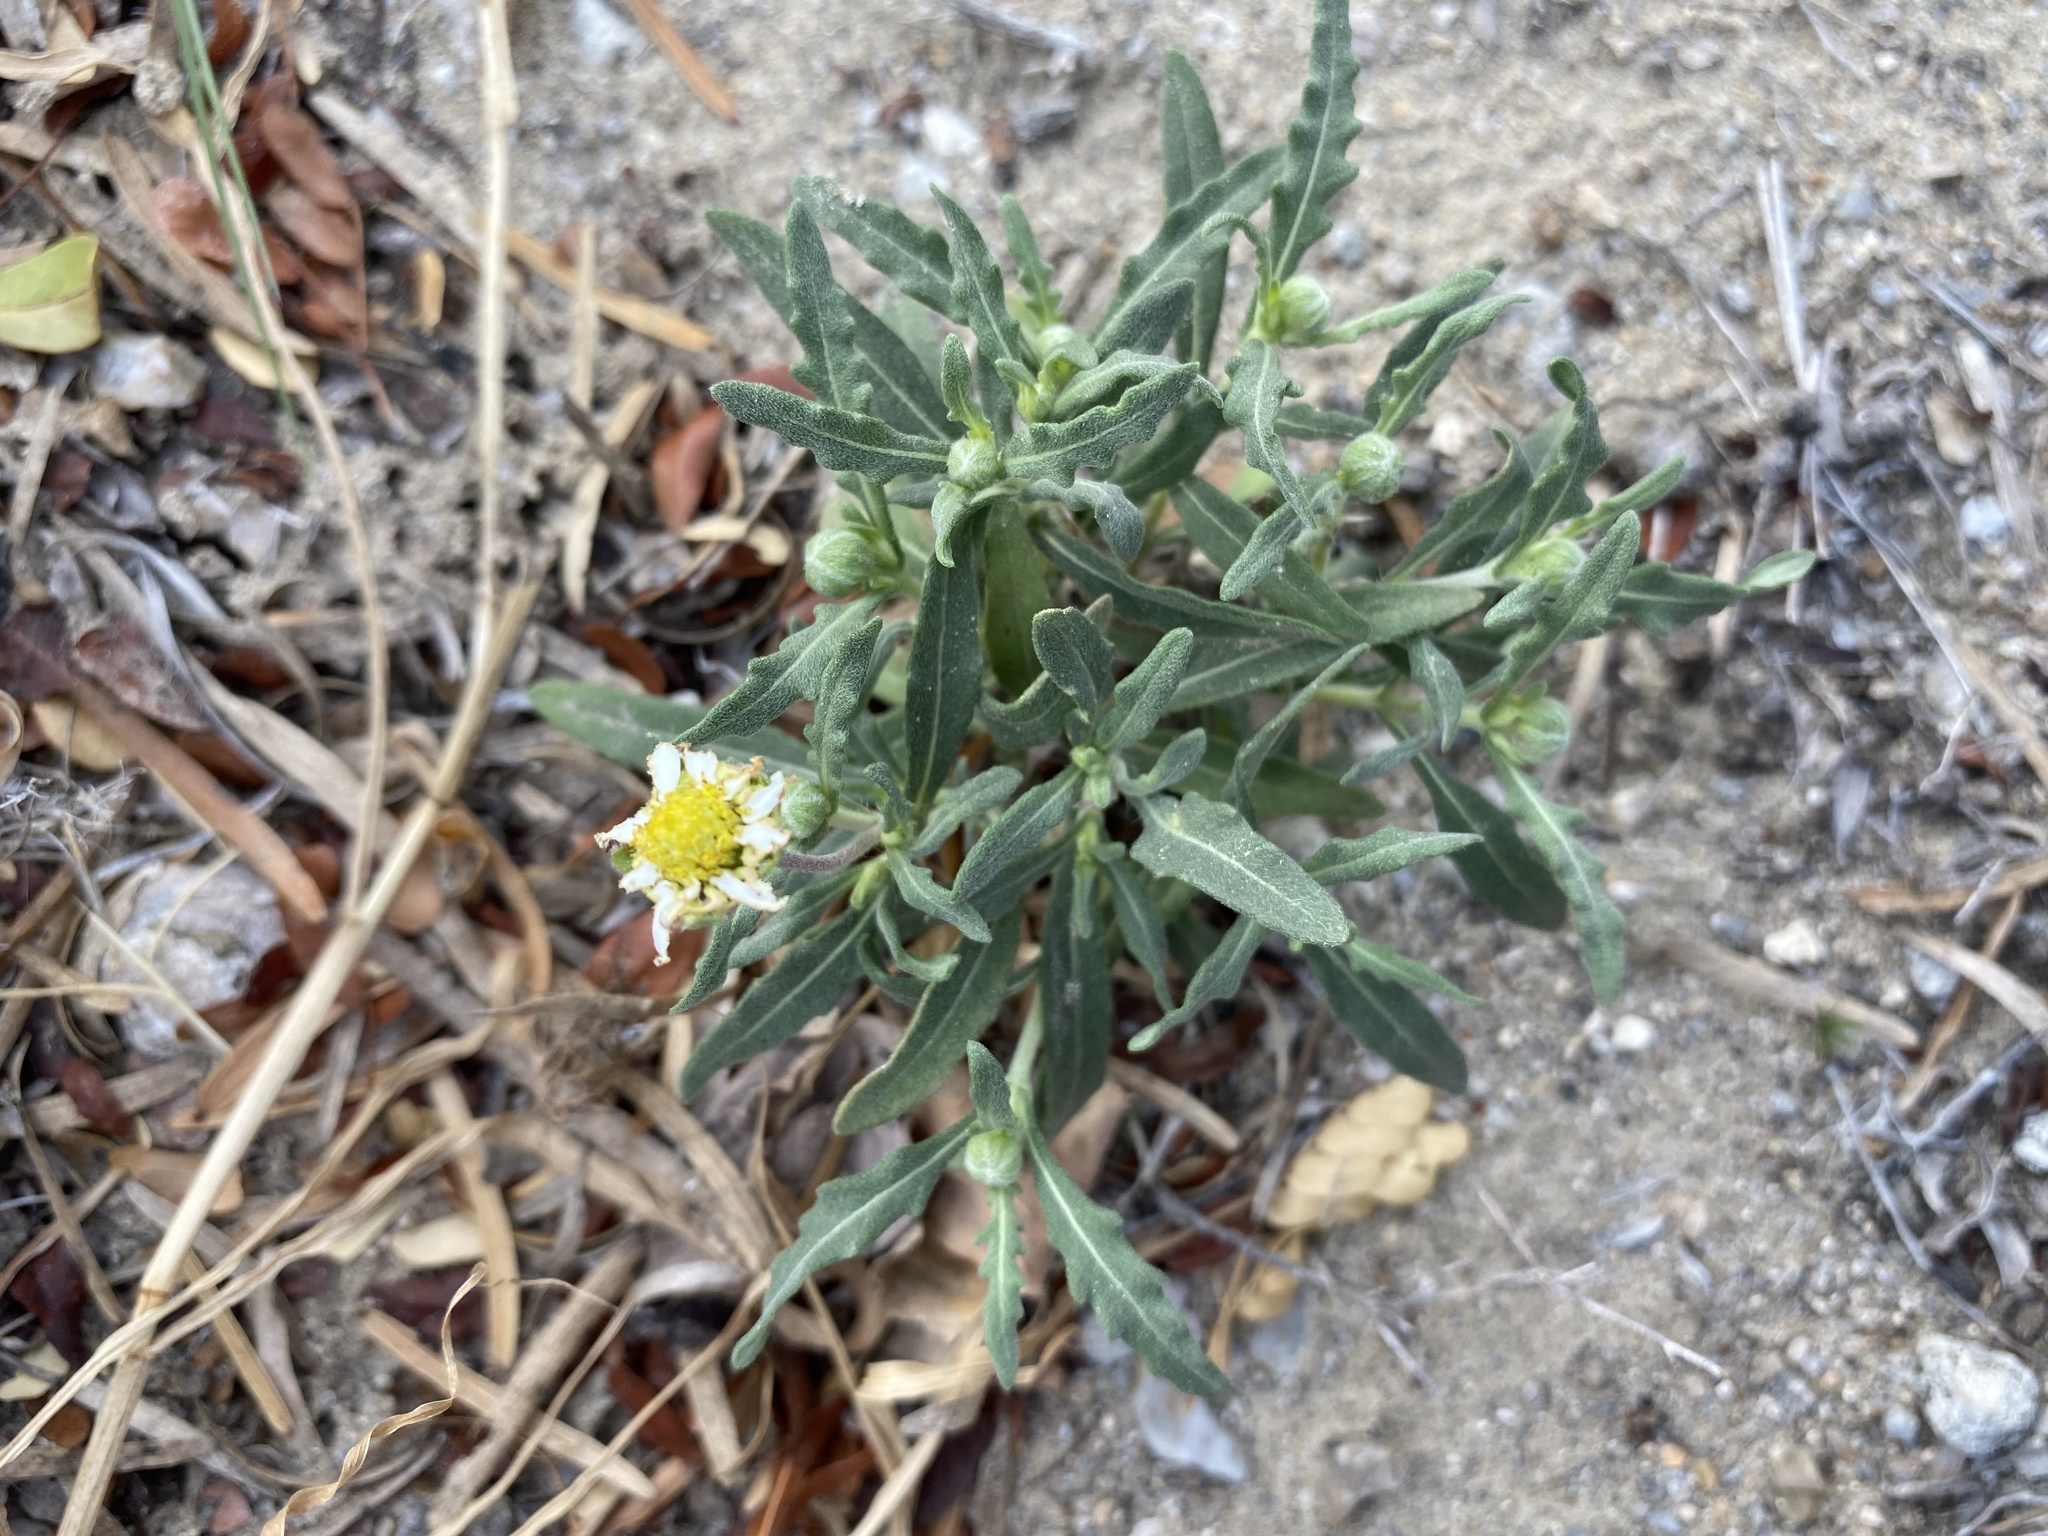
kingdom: Plantae
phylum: Tracheophyta
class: Magnoliopsida
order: Asterales
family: Asteraceae
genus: Melampodium
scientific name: Melampodium cinereum
